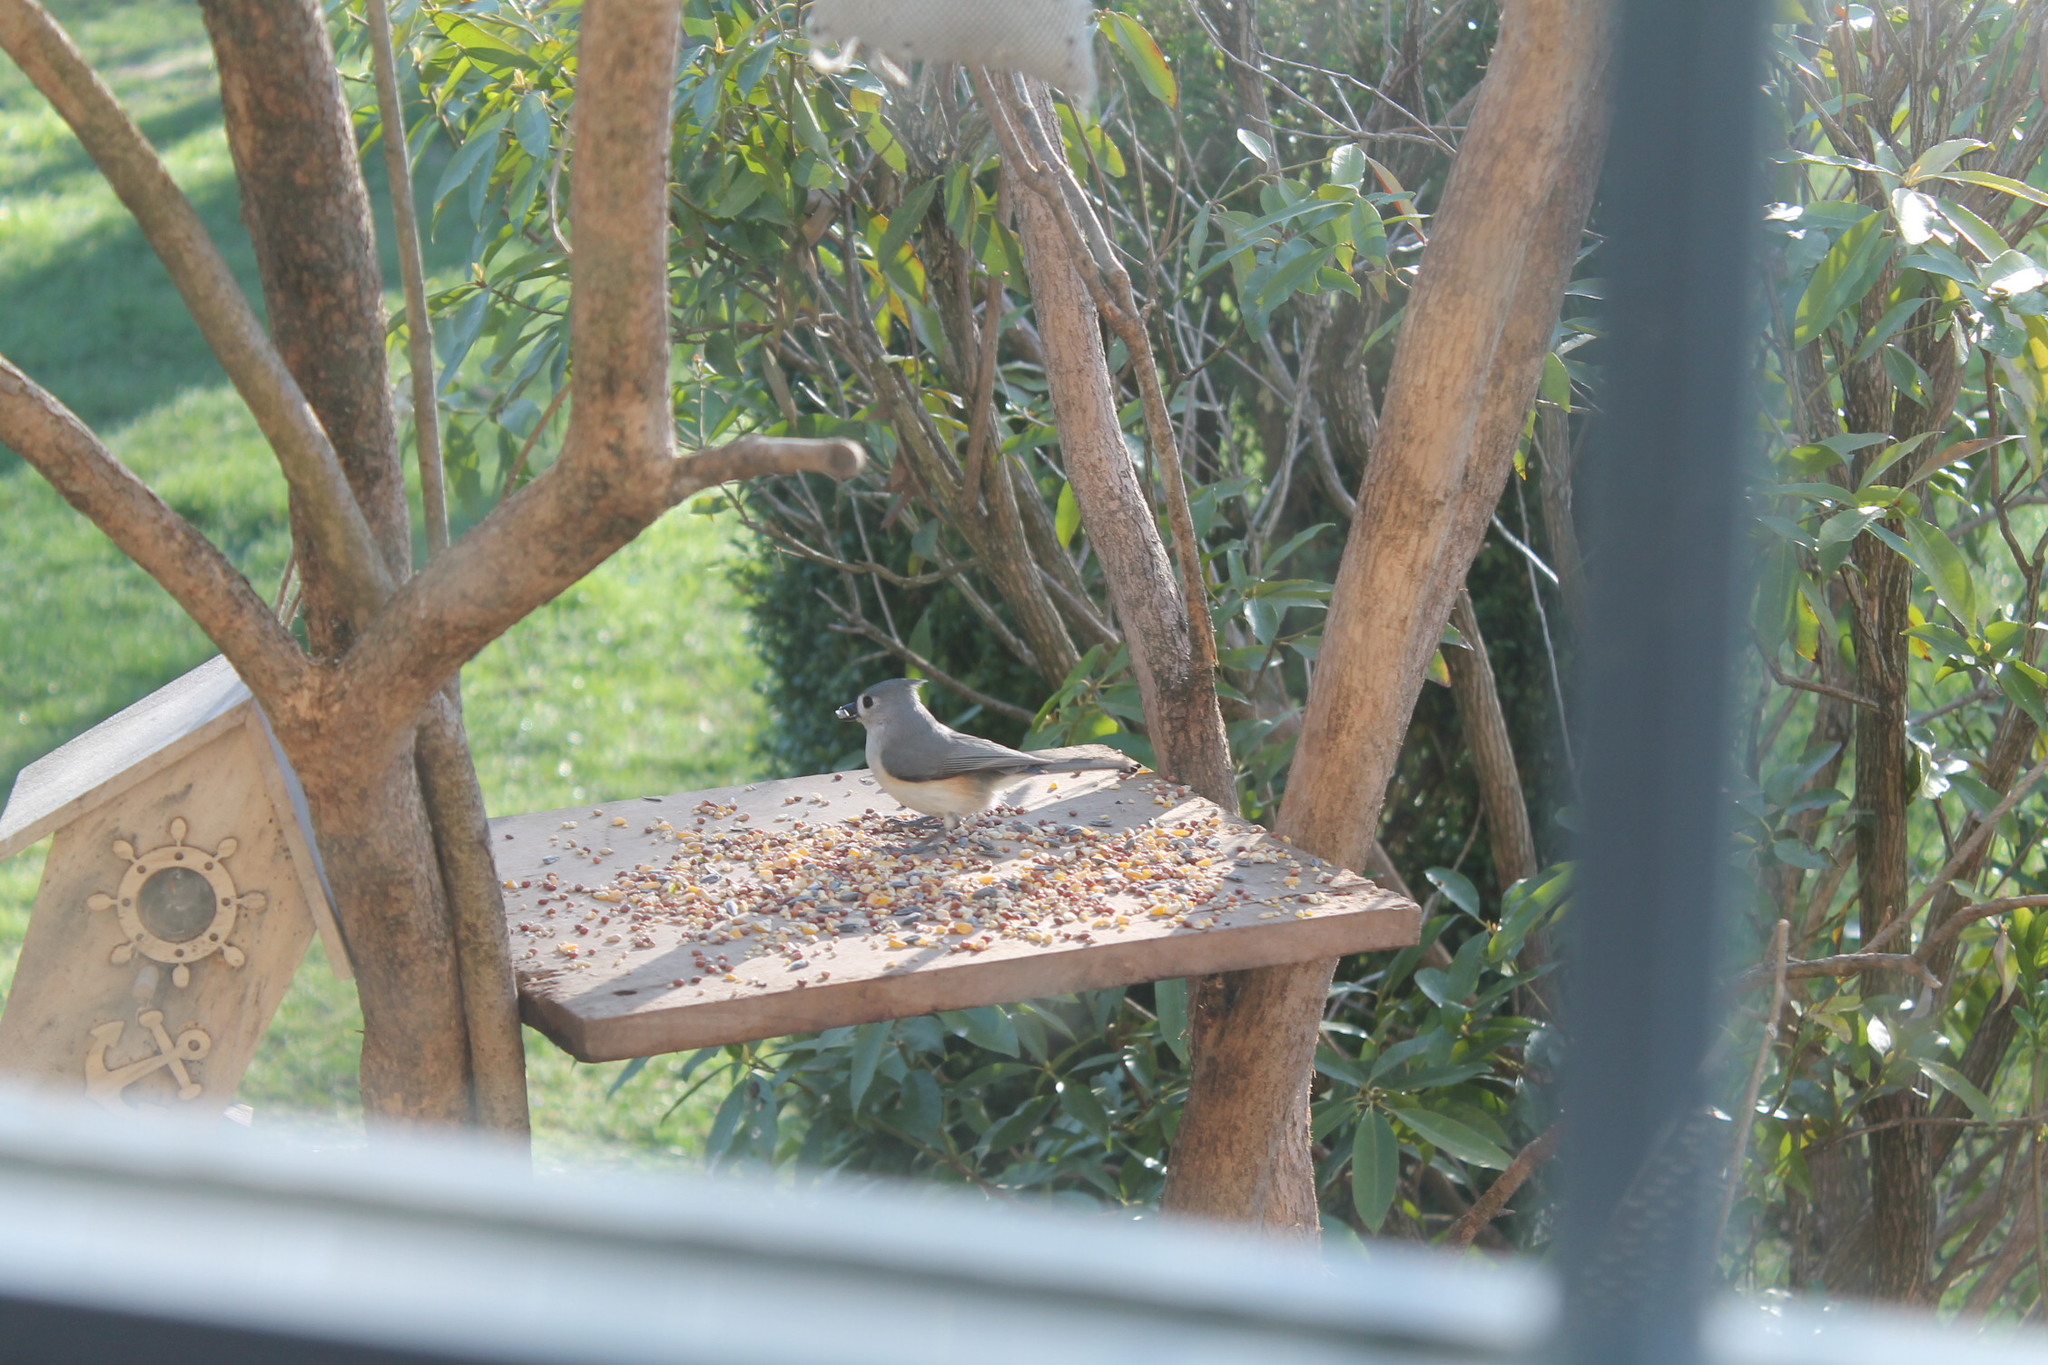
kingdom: Animalia
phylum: Chordata
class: Aves
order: Passeriformes
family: Paridae
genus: Baeolophus
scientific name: Baeolophus bicolor
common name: Tufted titmouse
